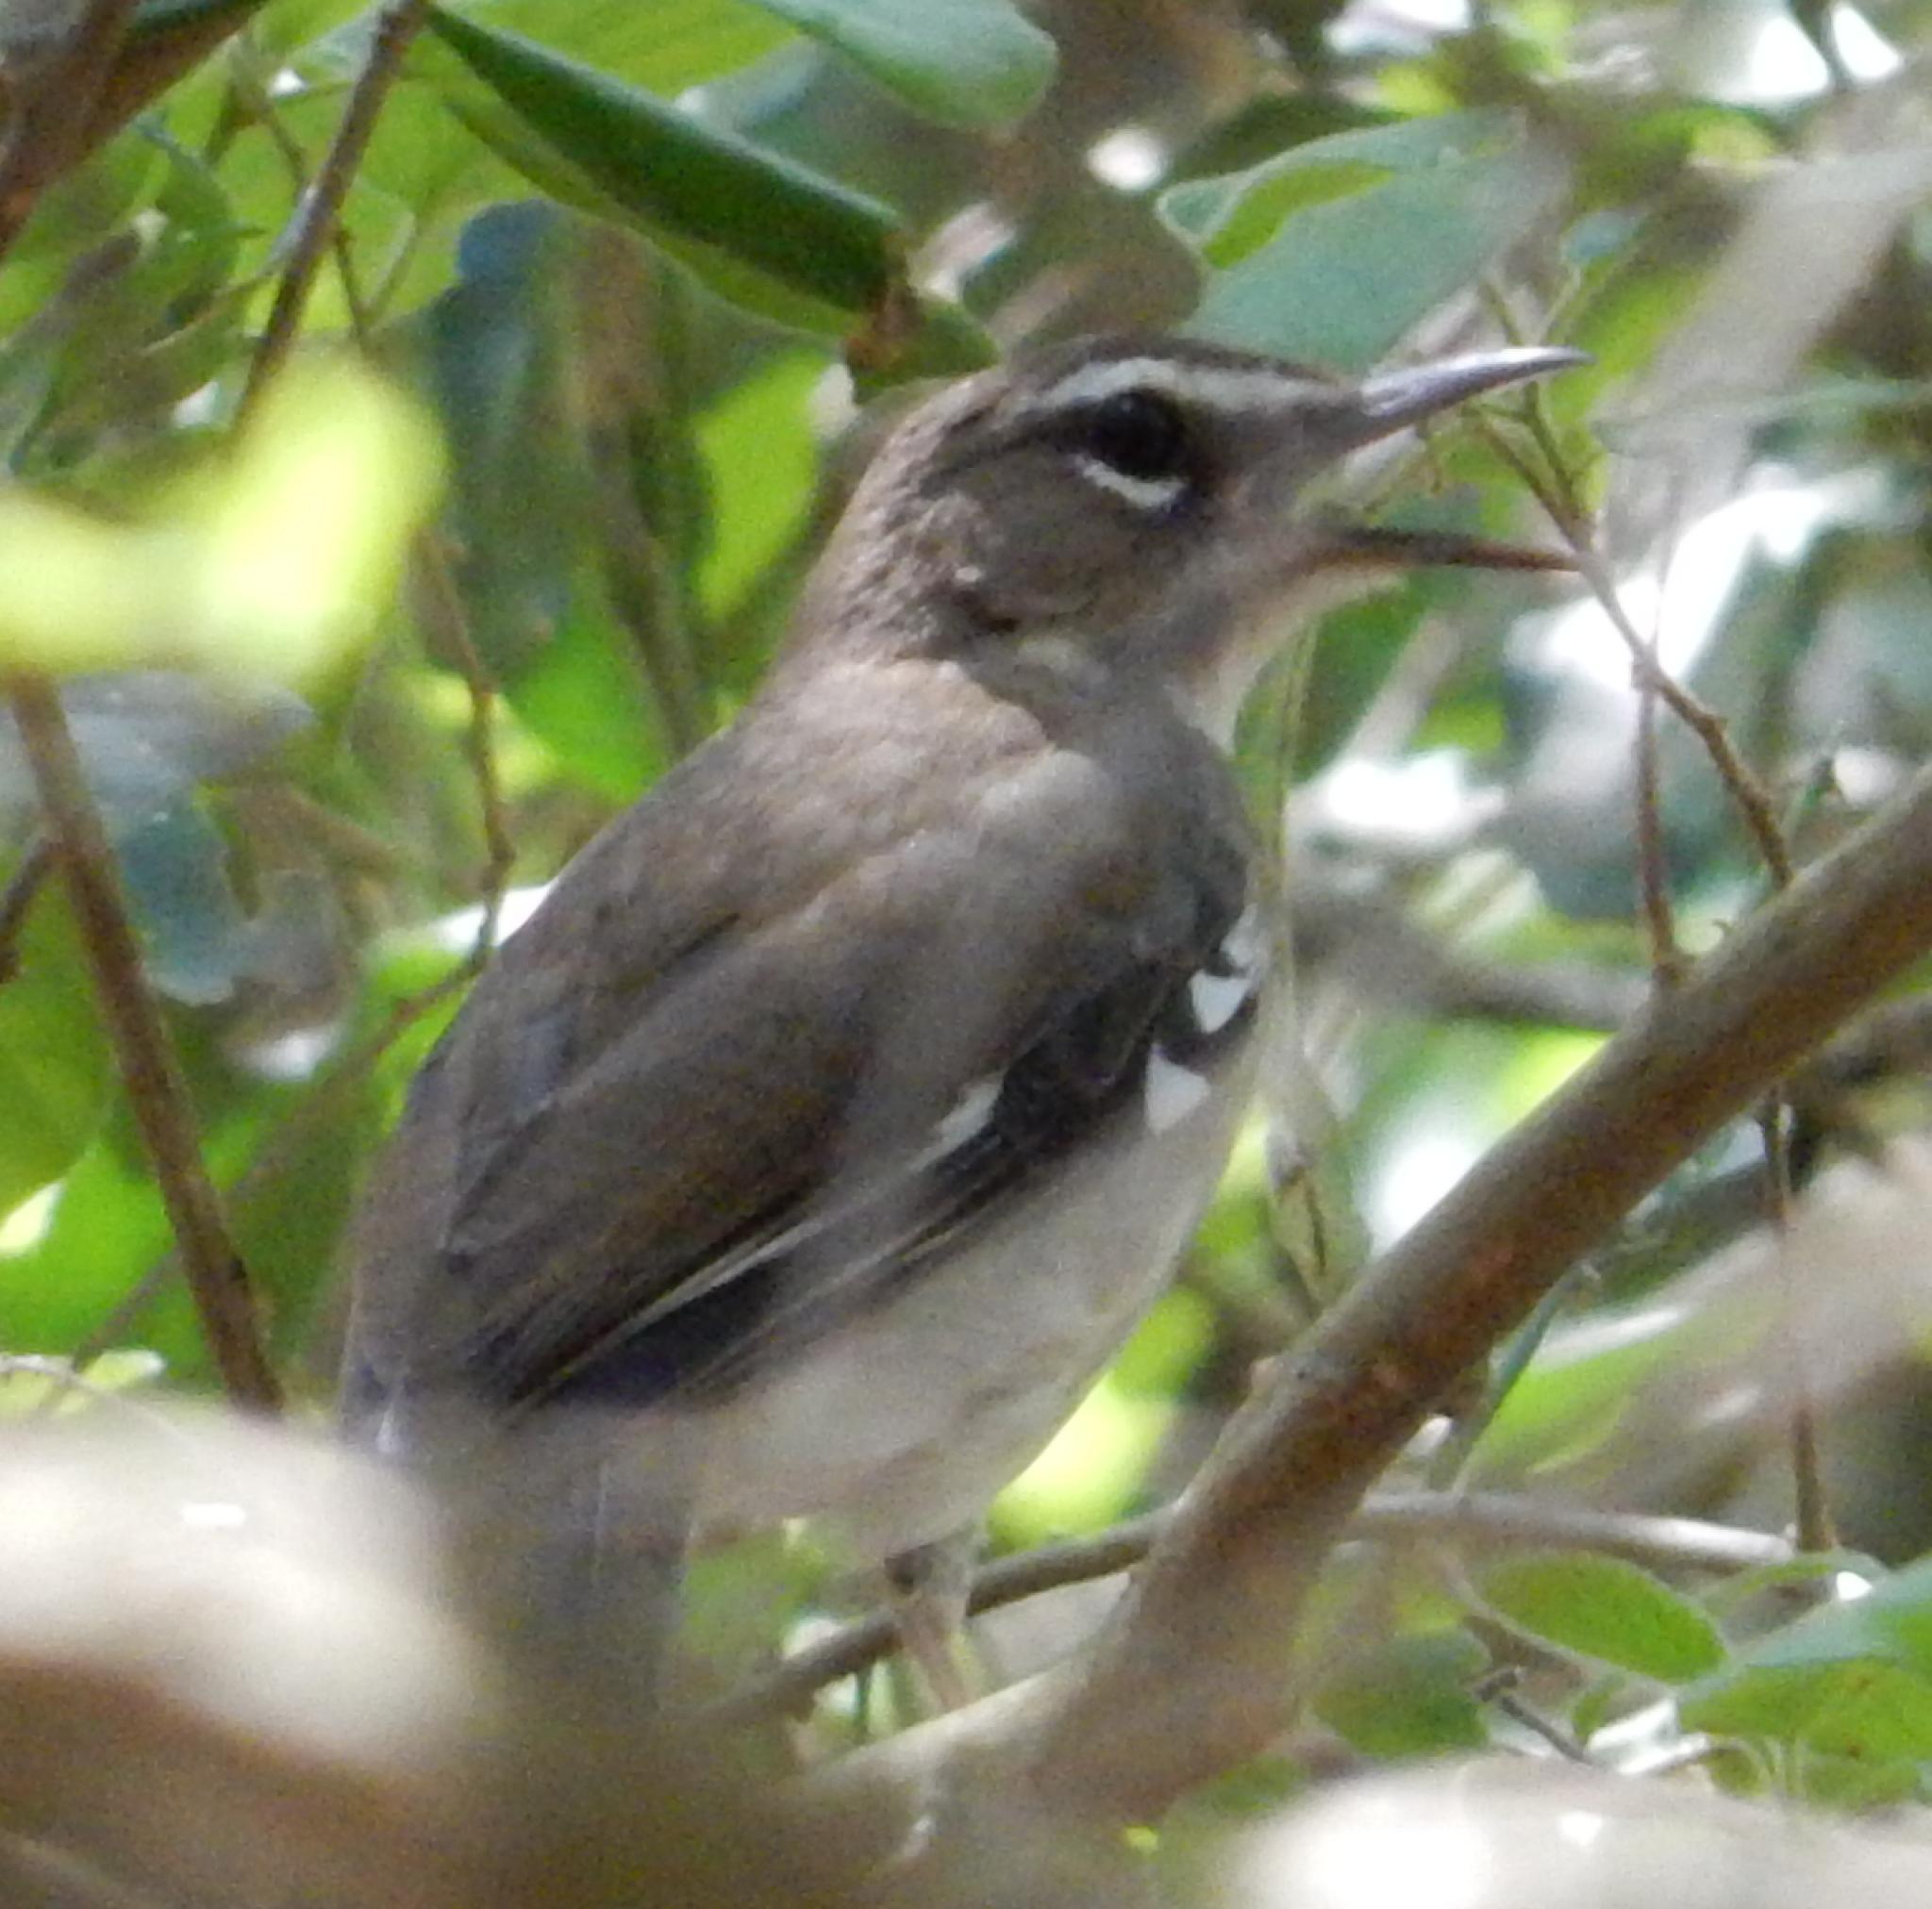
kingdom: Animalia
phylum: Chordata
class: Aves
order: Passeriformes
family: Muscicapidae
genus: Erythropygia
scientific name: Erythropygia signata
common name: Brown scrub robin
